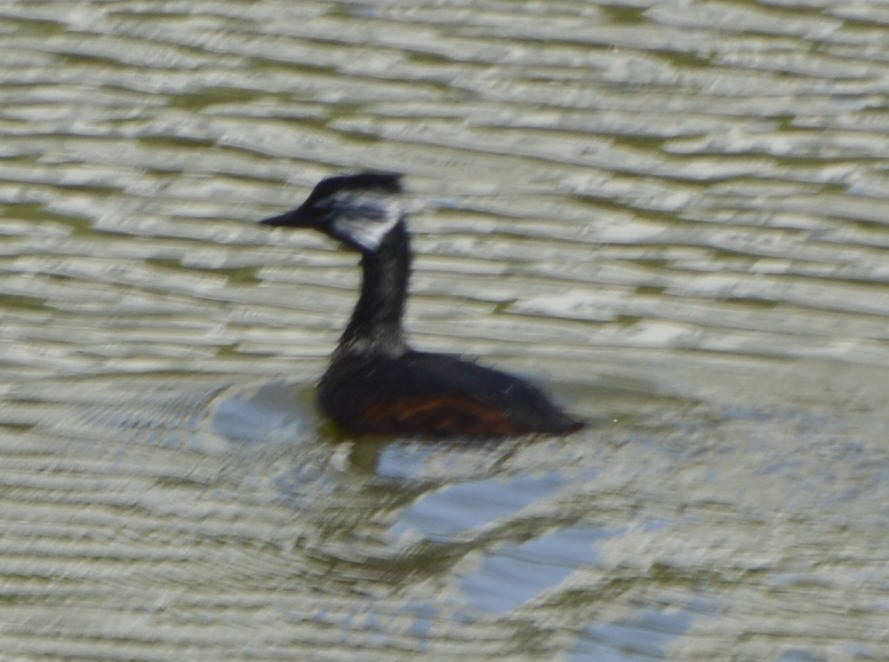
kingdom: Animalia
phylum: Chordata
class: Aves
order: Podicipediformes
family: Podicipedidae
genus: Rollandia
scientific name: Rollandia rolland
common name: White-tufted grebe
